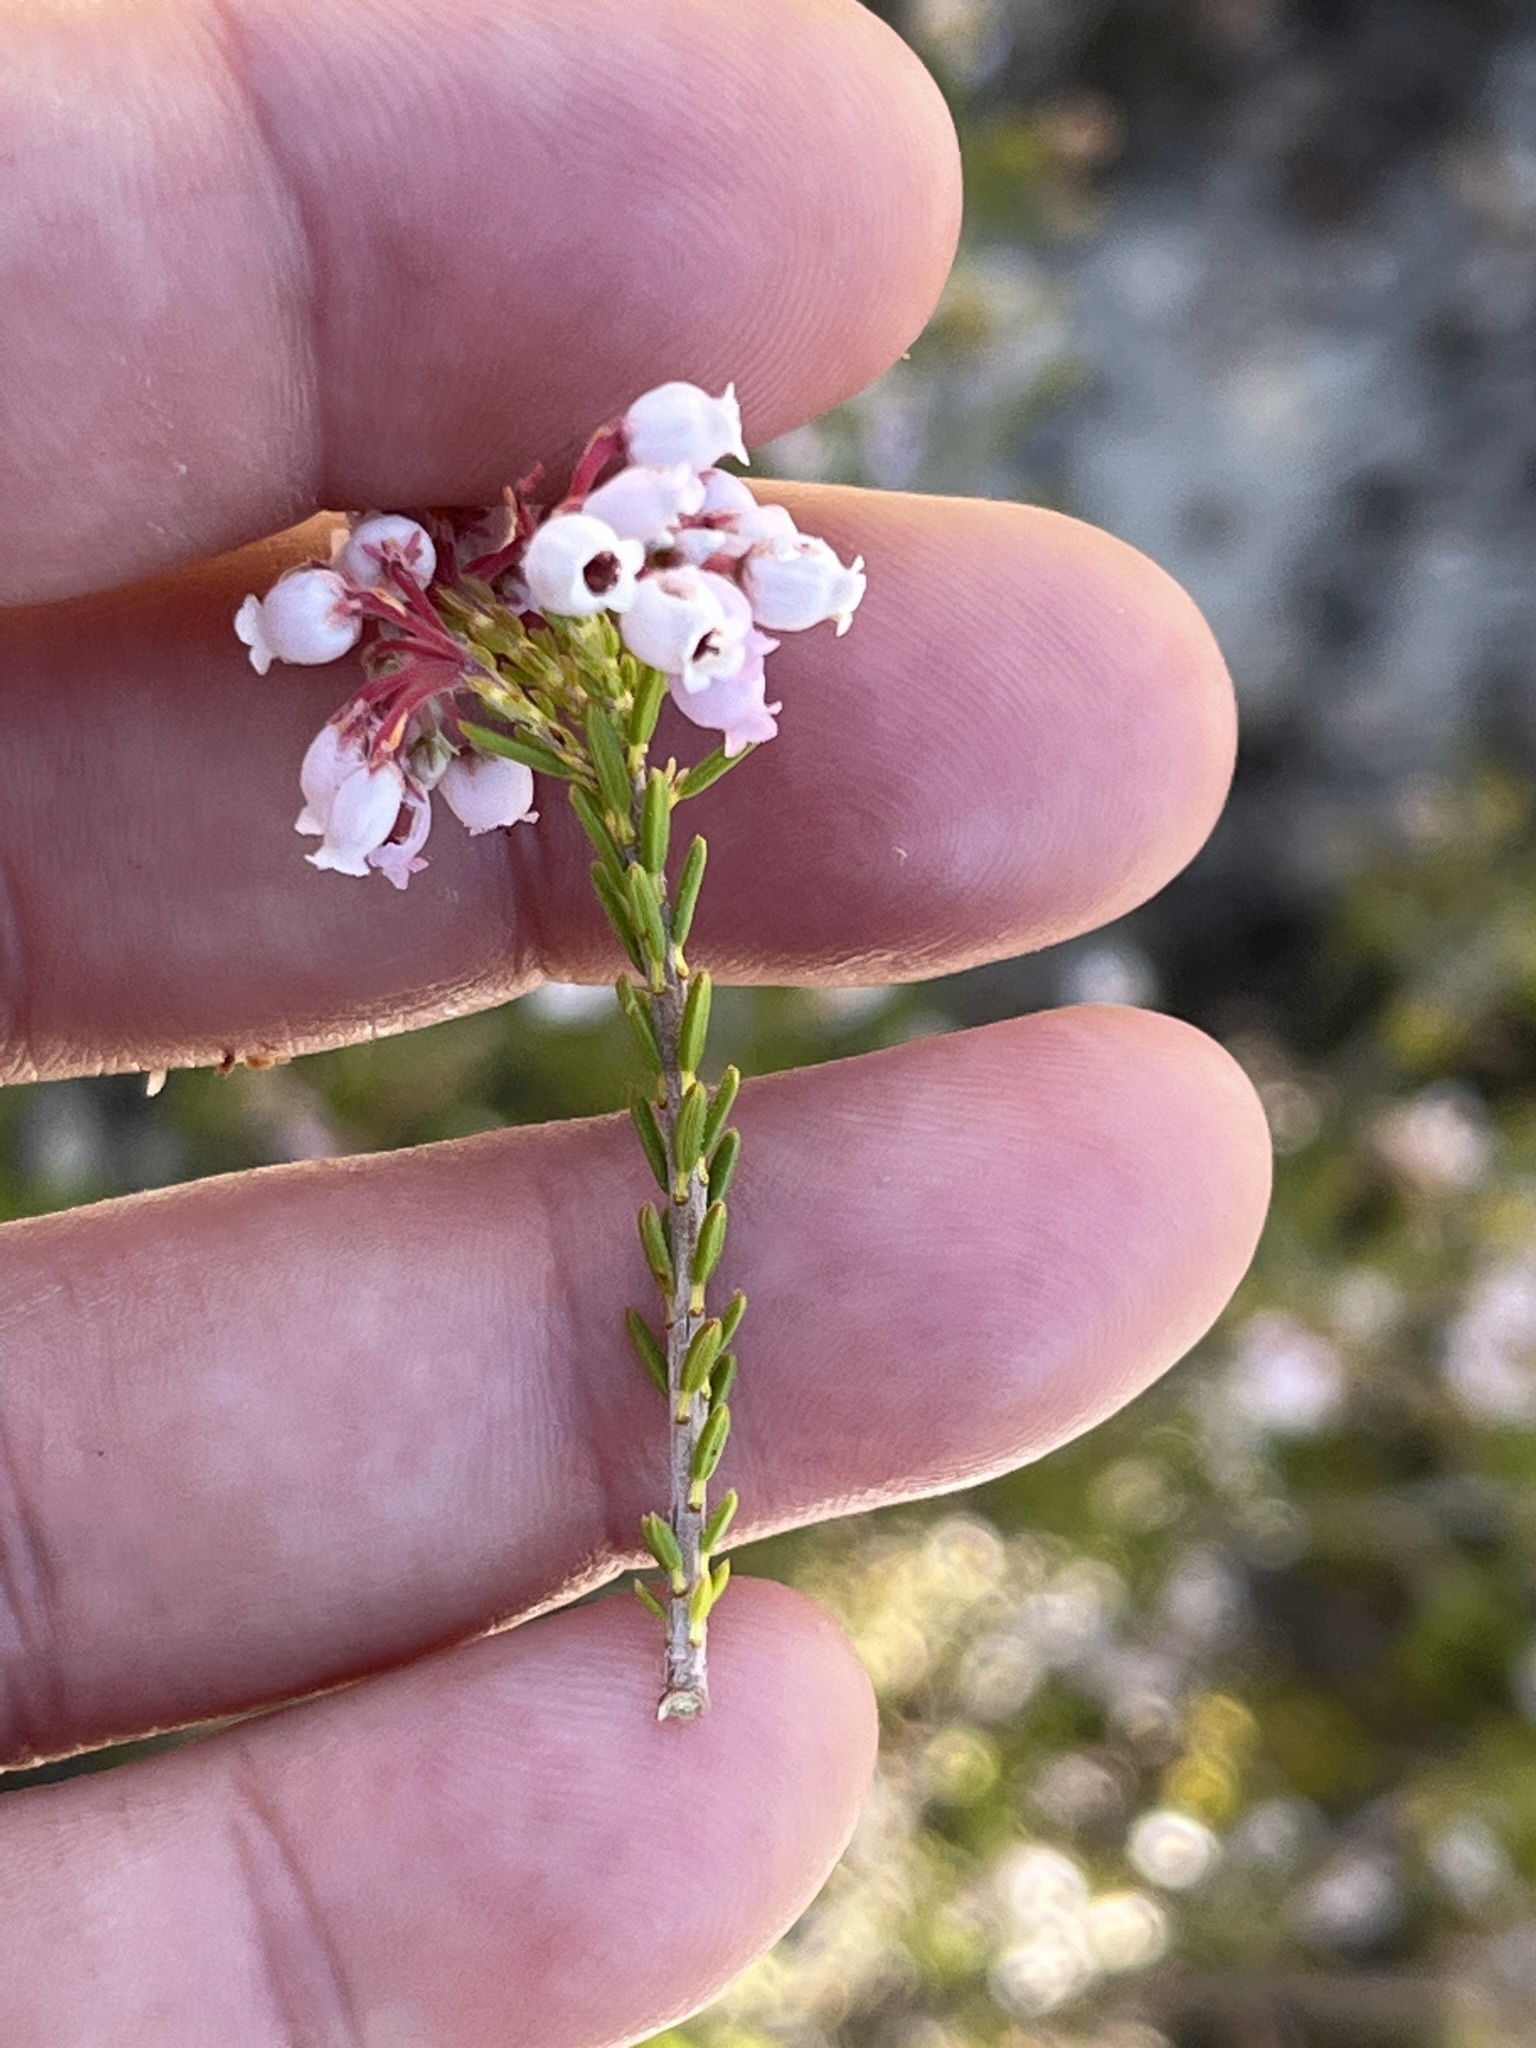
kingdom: Plantae
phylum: Tracheophyta
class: Magnoliopsida
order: Ericales
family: Ericaceae
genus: Erica
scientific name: Erica verecunda
